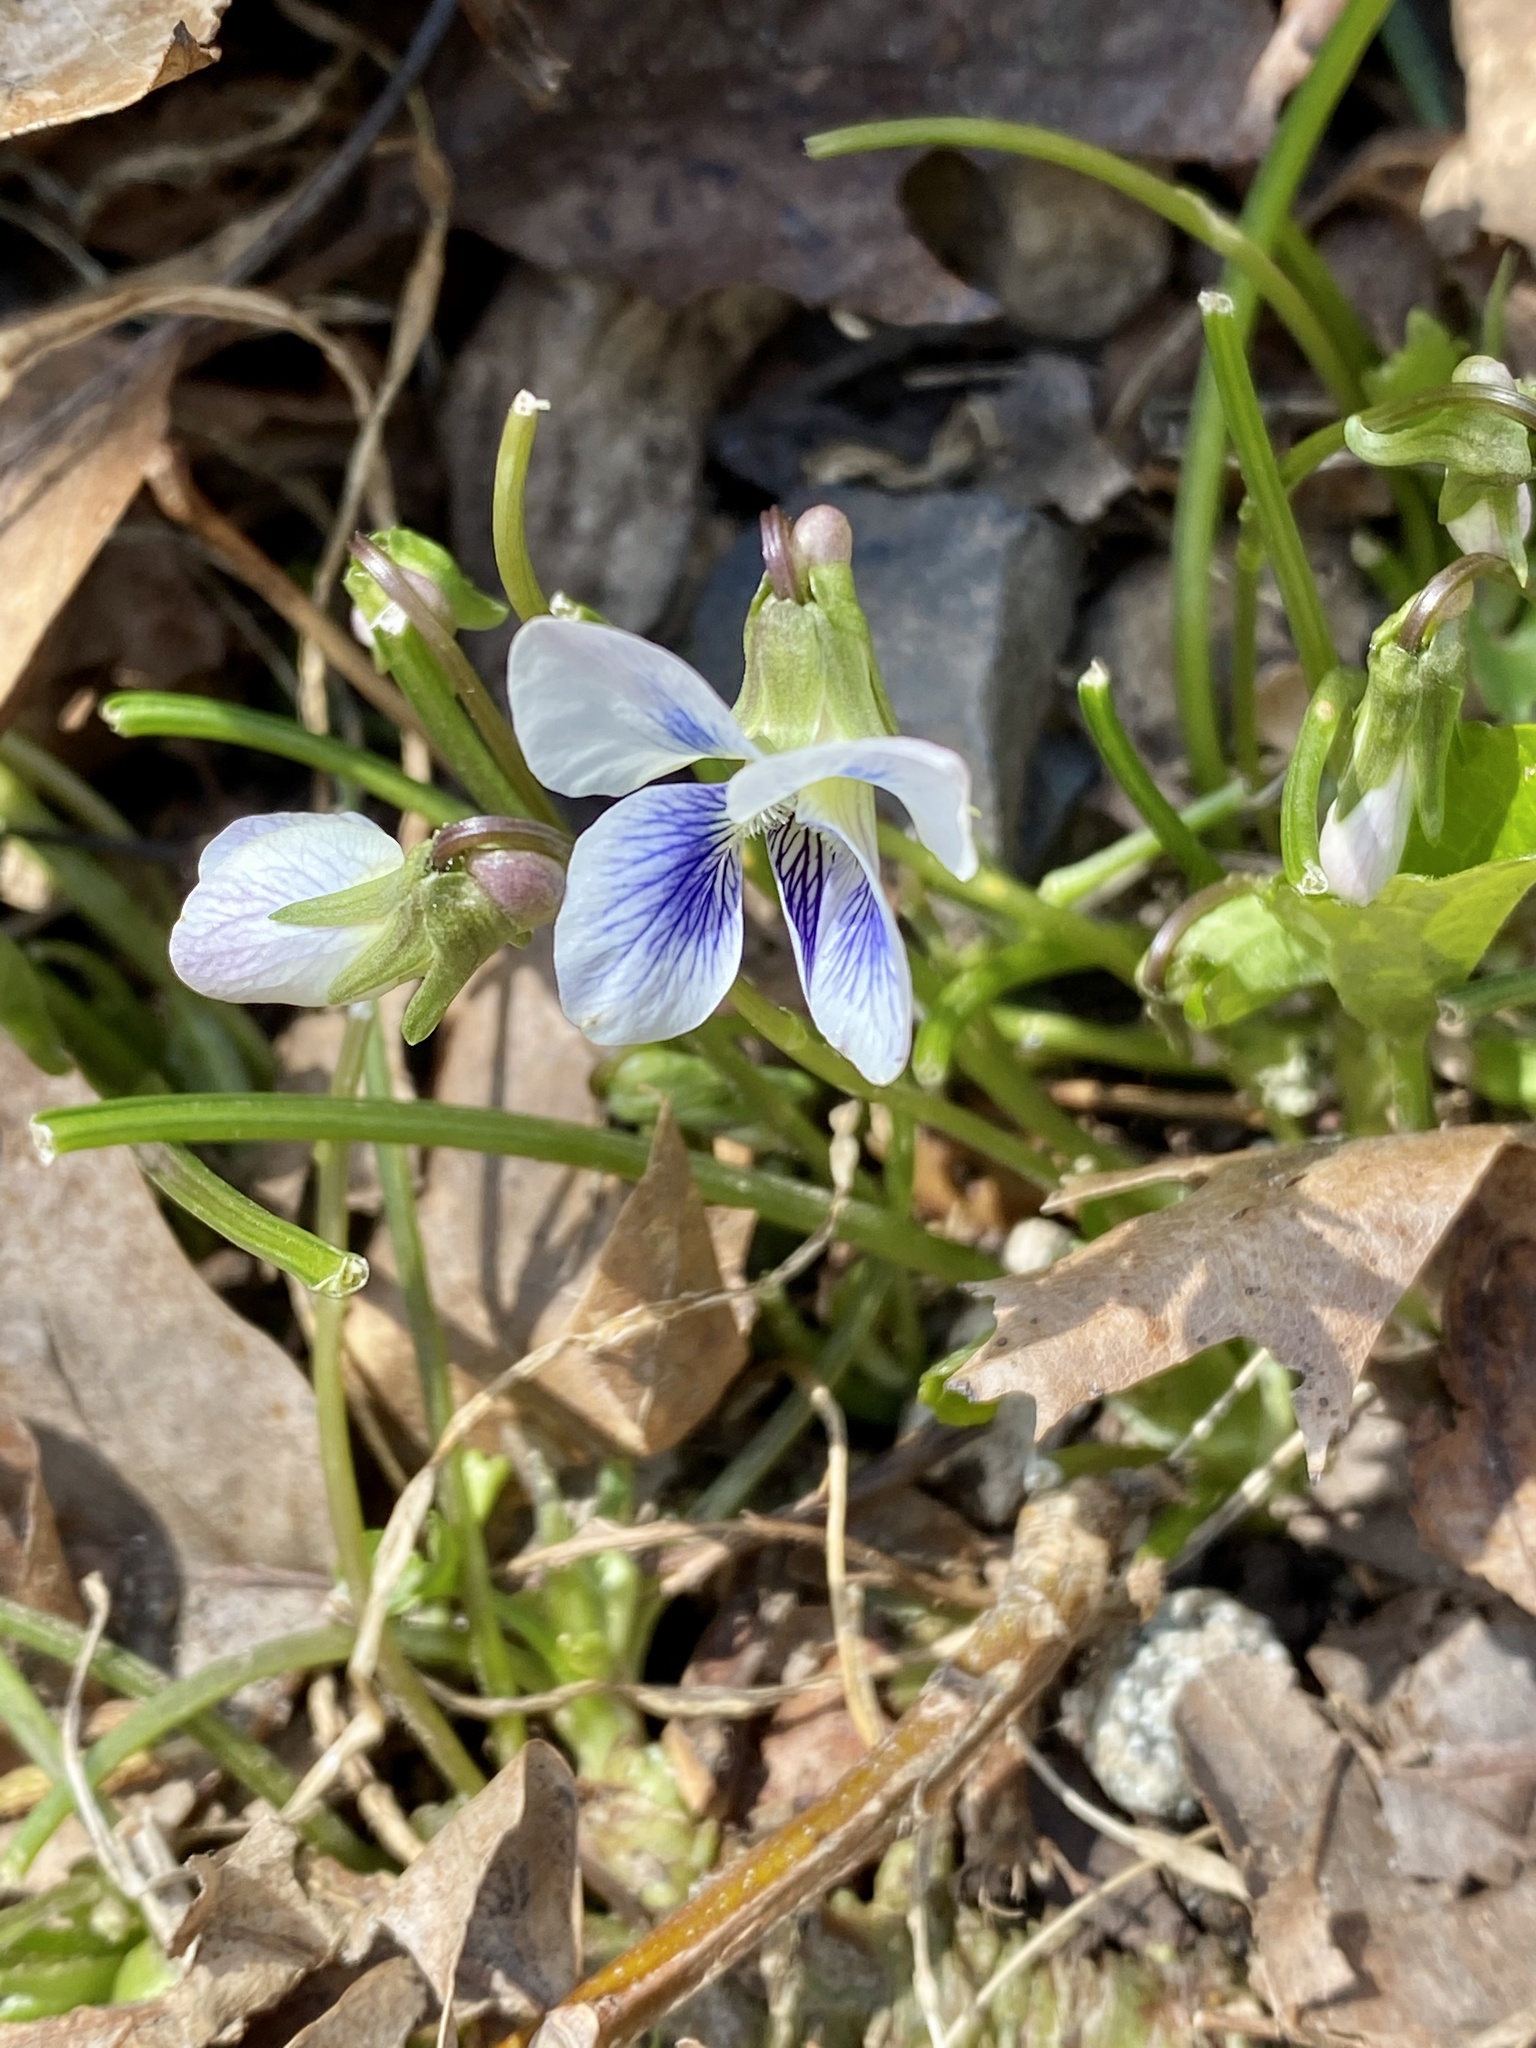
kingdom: Plantae
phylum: Tracheophyta
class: Magnoliopsida
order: Malpighiales
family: Violaceae
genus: Viola
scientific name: Viola sororia
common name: Dooryard violet
